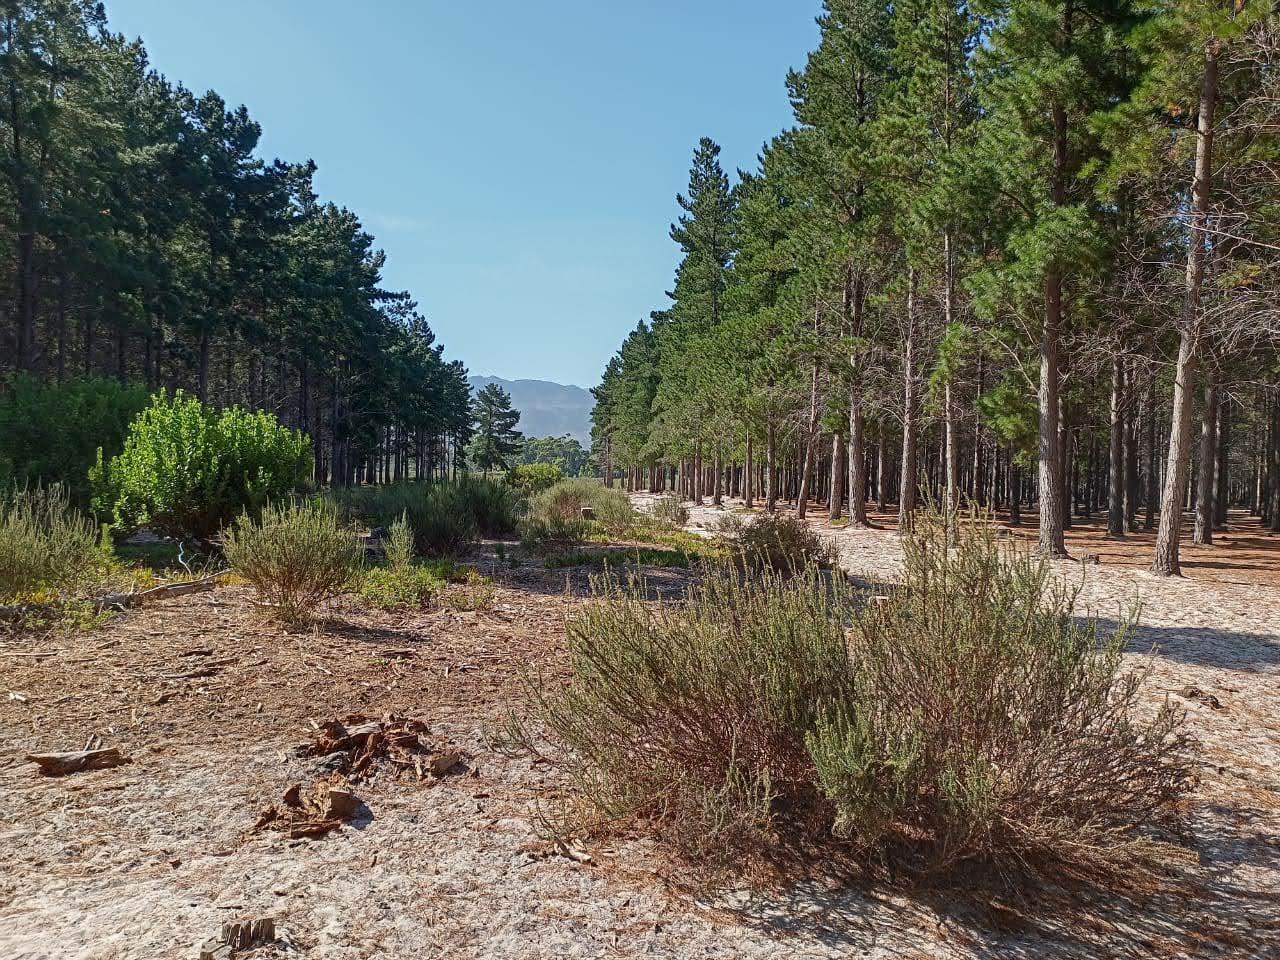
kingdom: Plantae
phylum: Tracheophyta
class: Magnoliopsida
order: Asterales
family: Asteraceae
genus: Metalasia
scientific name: Metalasia densa
